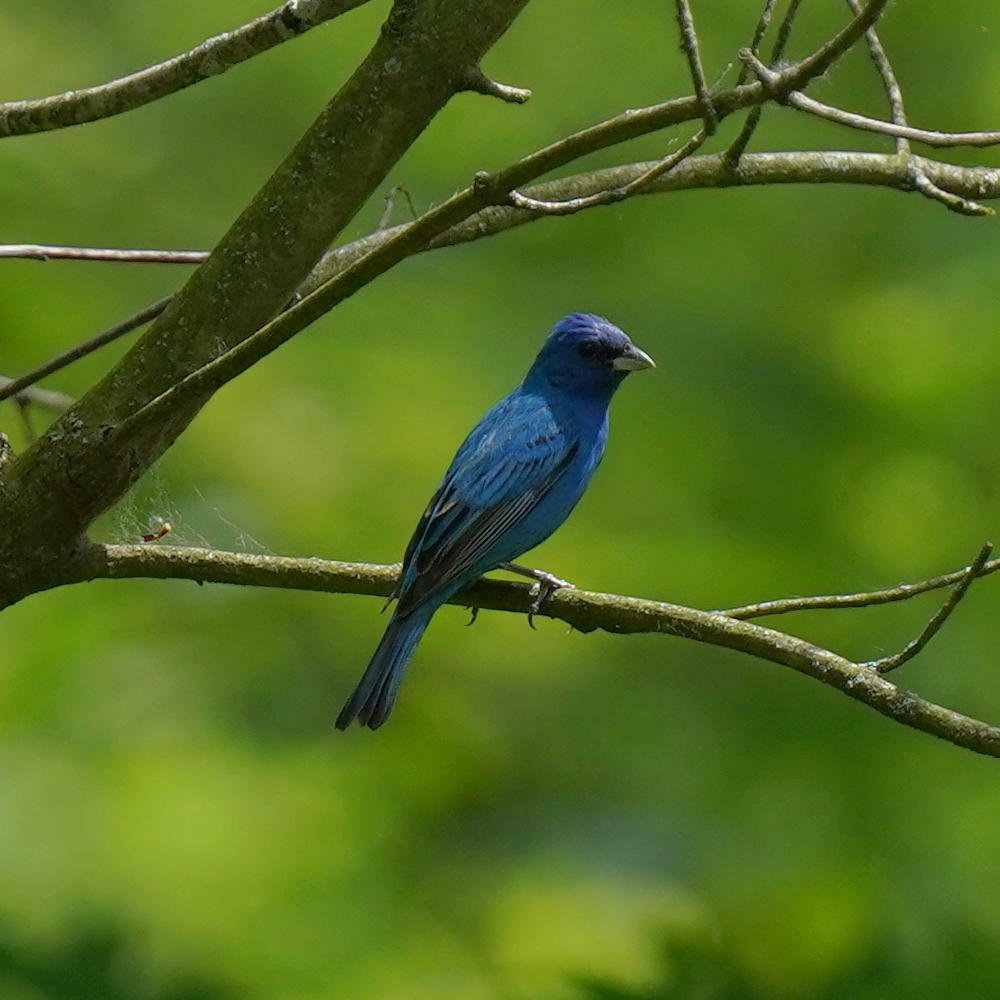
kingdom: Animalia
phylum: Chordata
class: Aves
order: Passeriformes
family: Cardinalidae
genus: Passerina
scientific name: Passerina cyanea
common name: Indigo bunting
